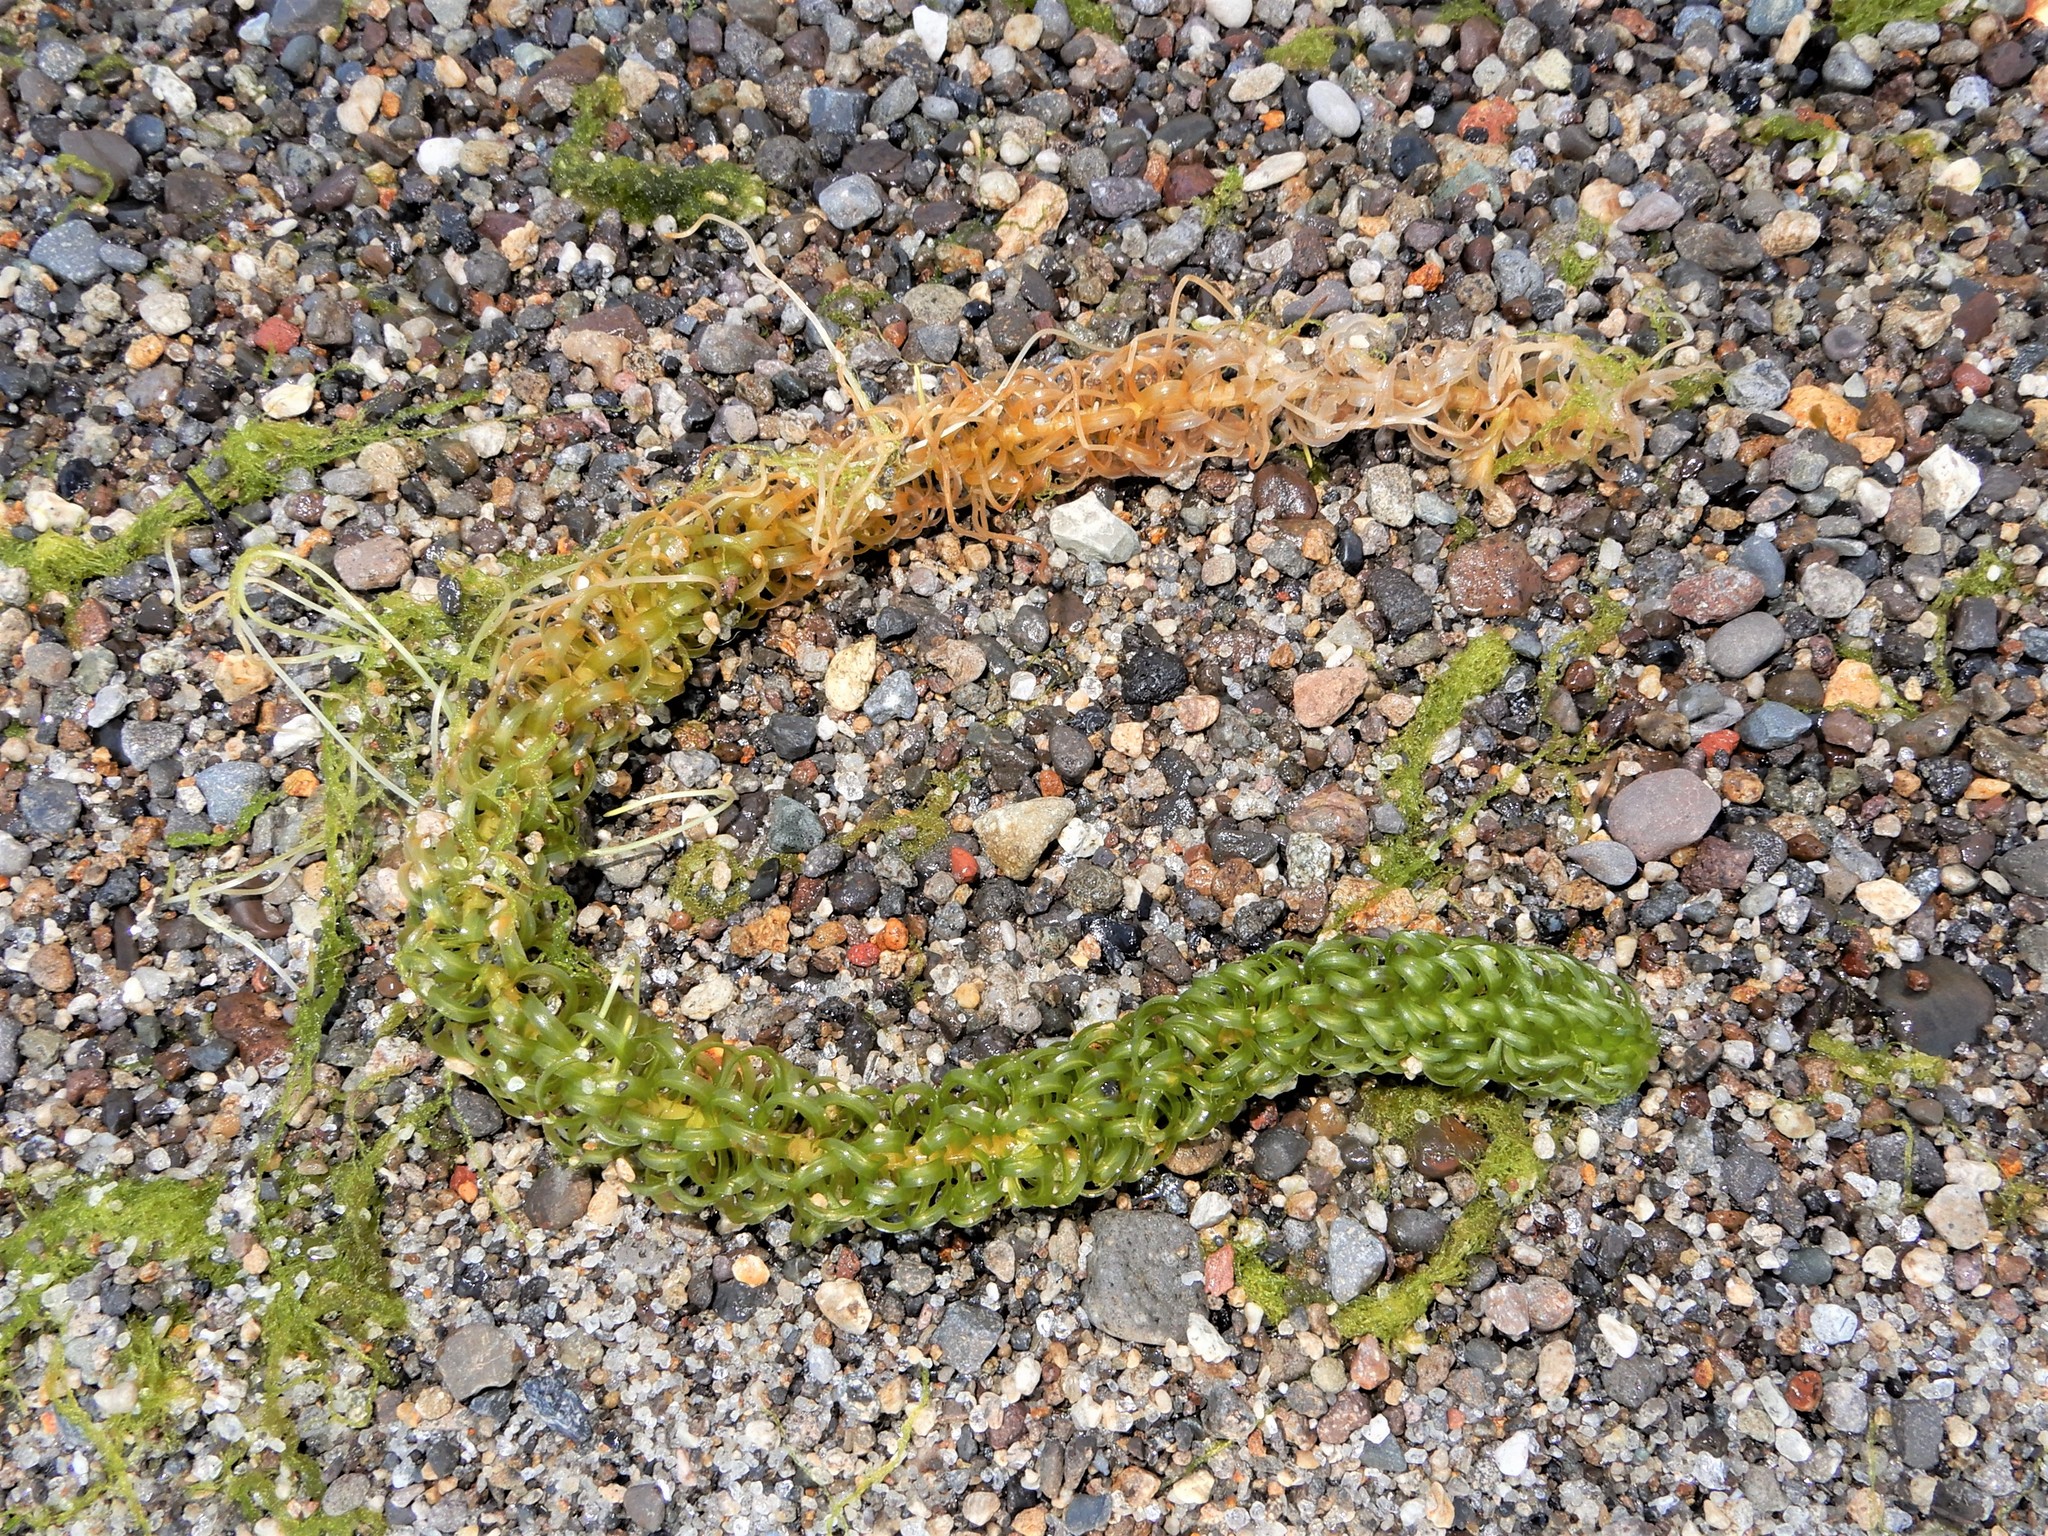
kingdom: Plantae
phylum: Tracheophyta
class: Liliopsida
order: Alismatales
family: Hydrocharitaceae
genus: Lagarosiphon
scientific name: Lagarosiphon major
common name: Curly waterweed
